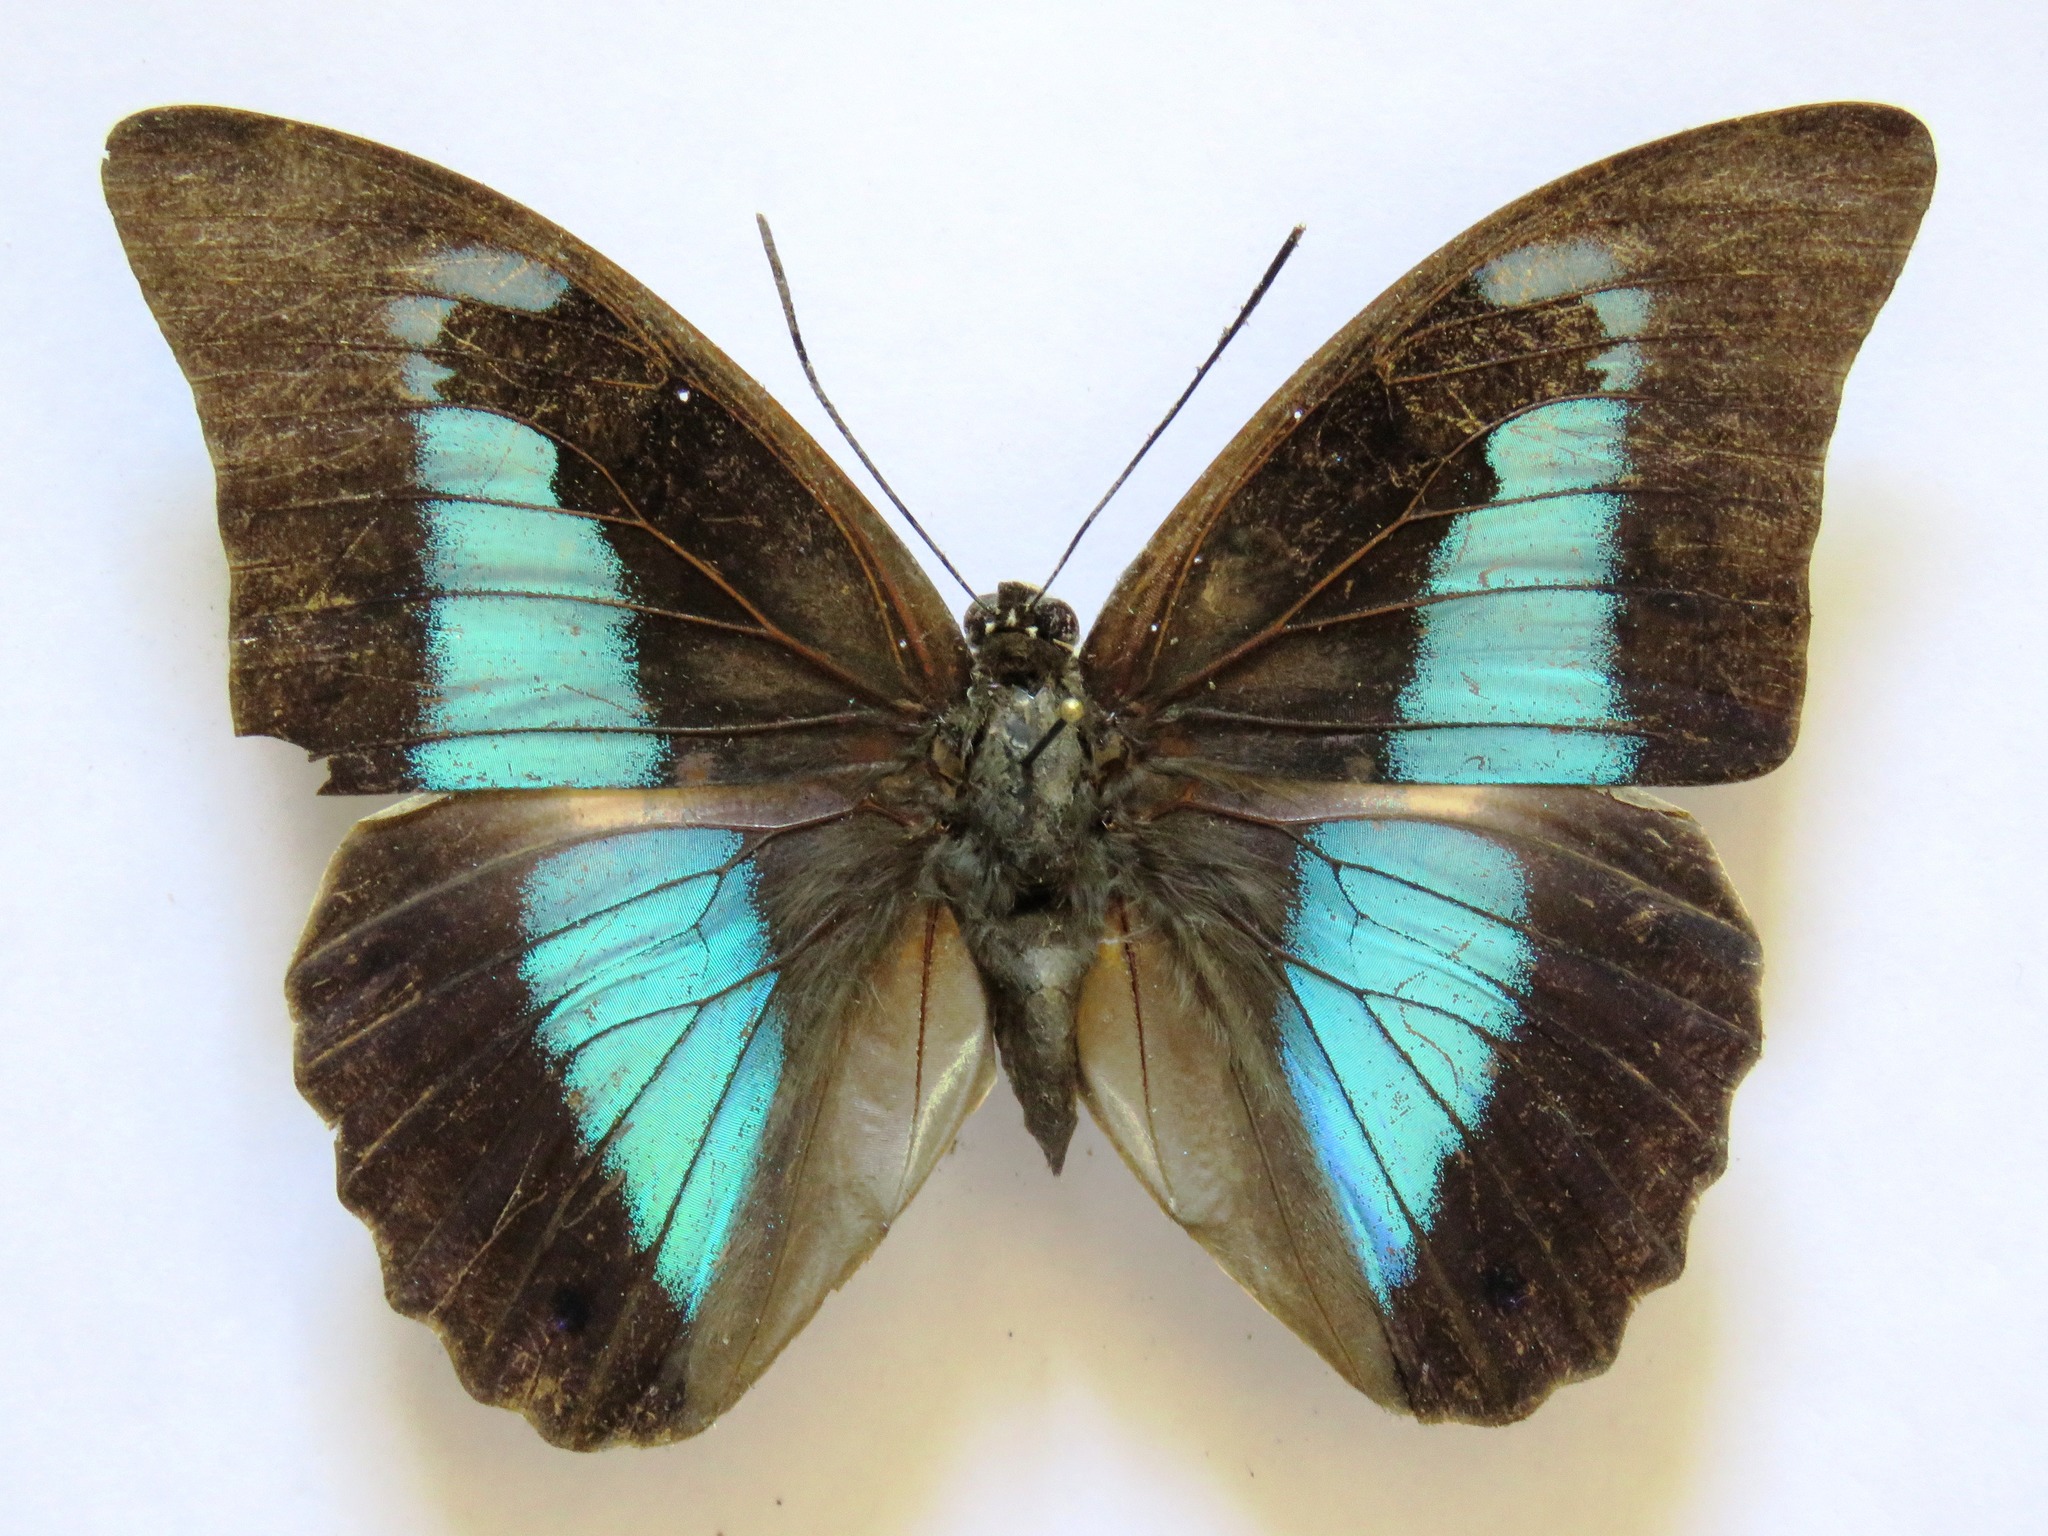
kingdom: Animalia
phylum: Arthropoda
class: Insecta
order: Lepidoptera
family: Nymphalidae
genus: Prepona
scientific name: Prepona laertes
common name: Butterfly
